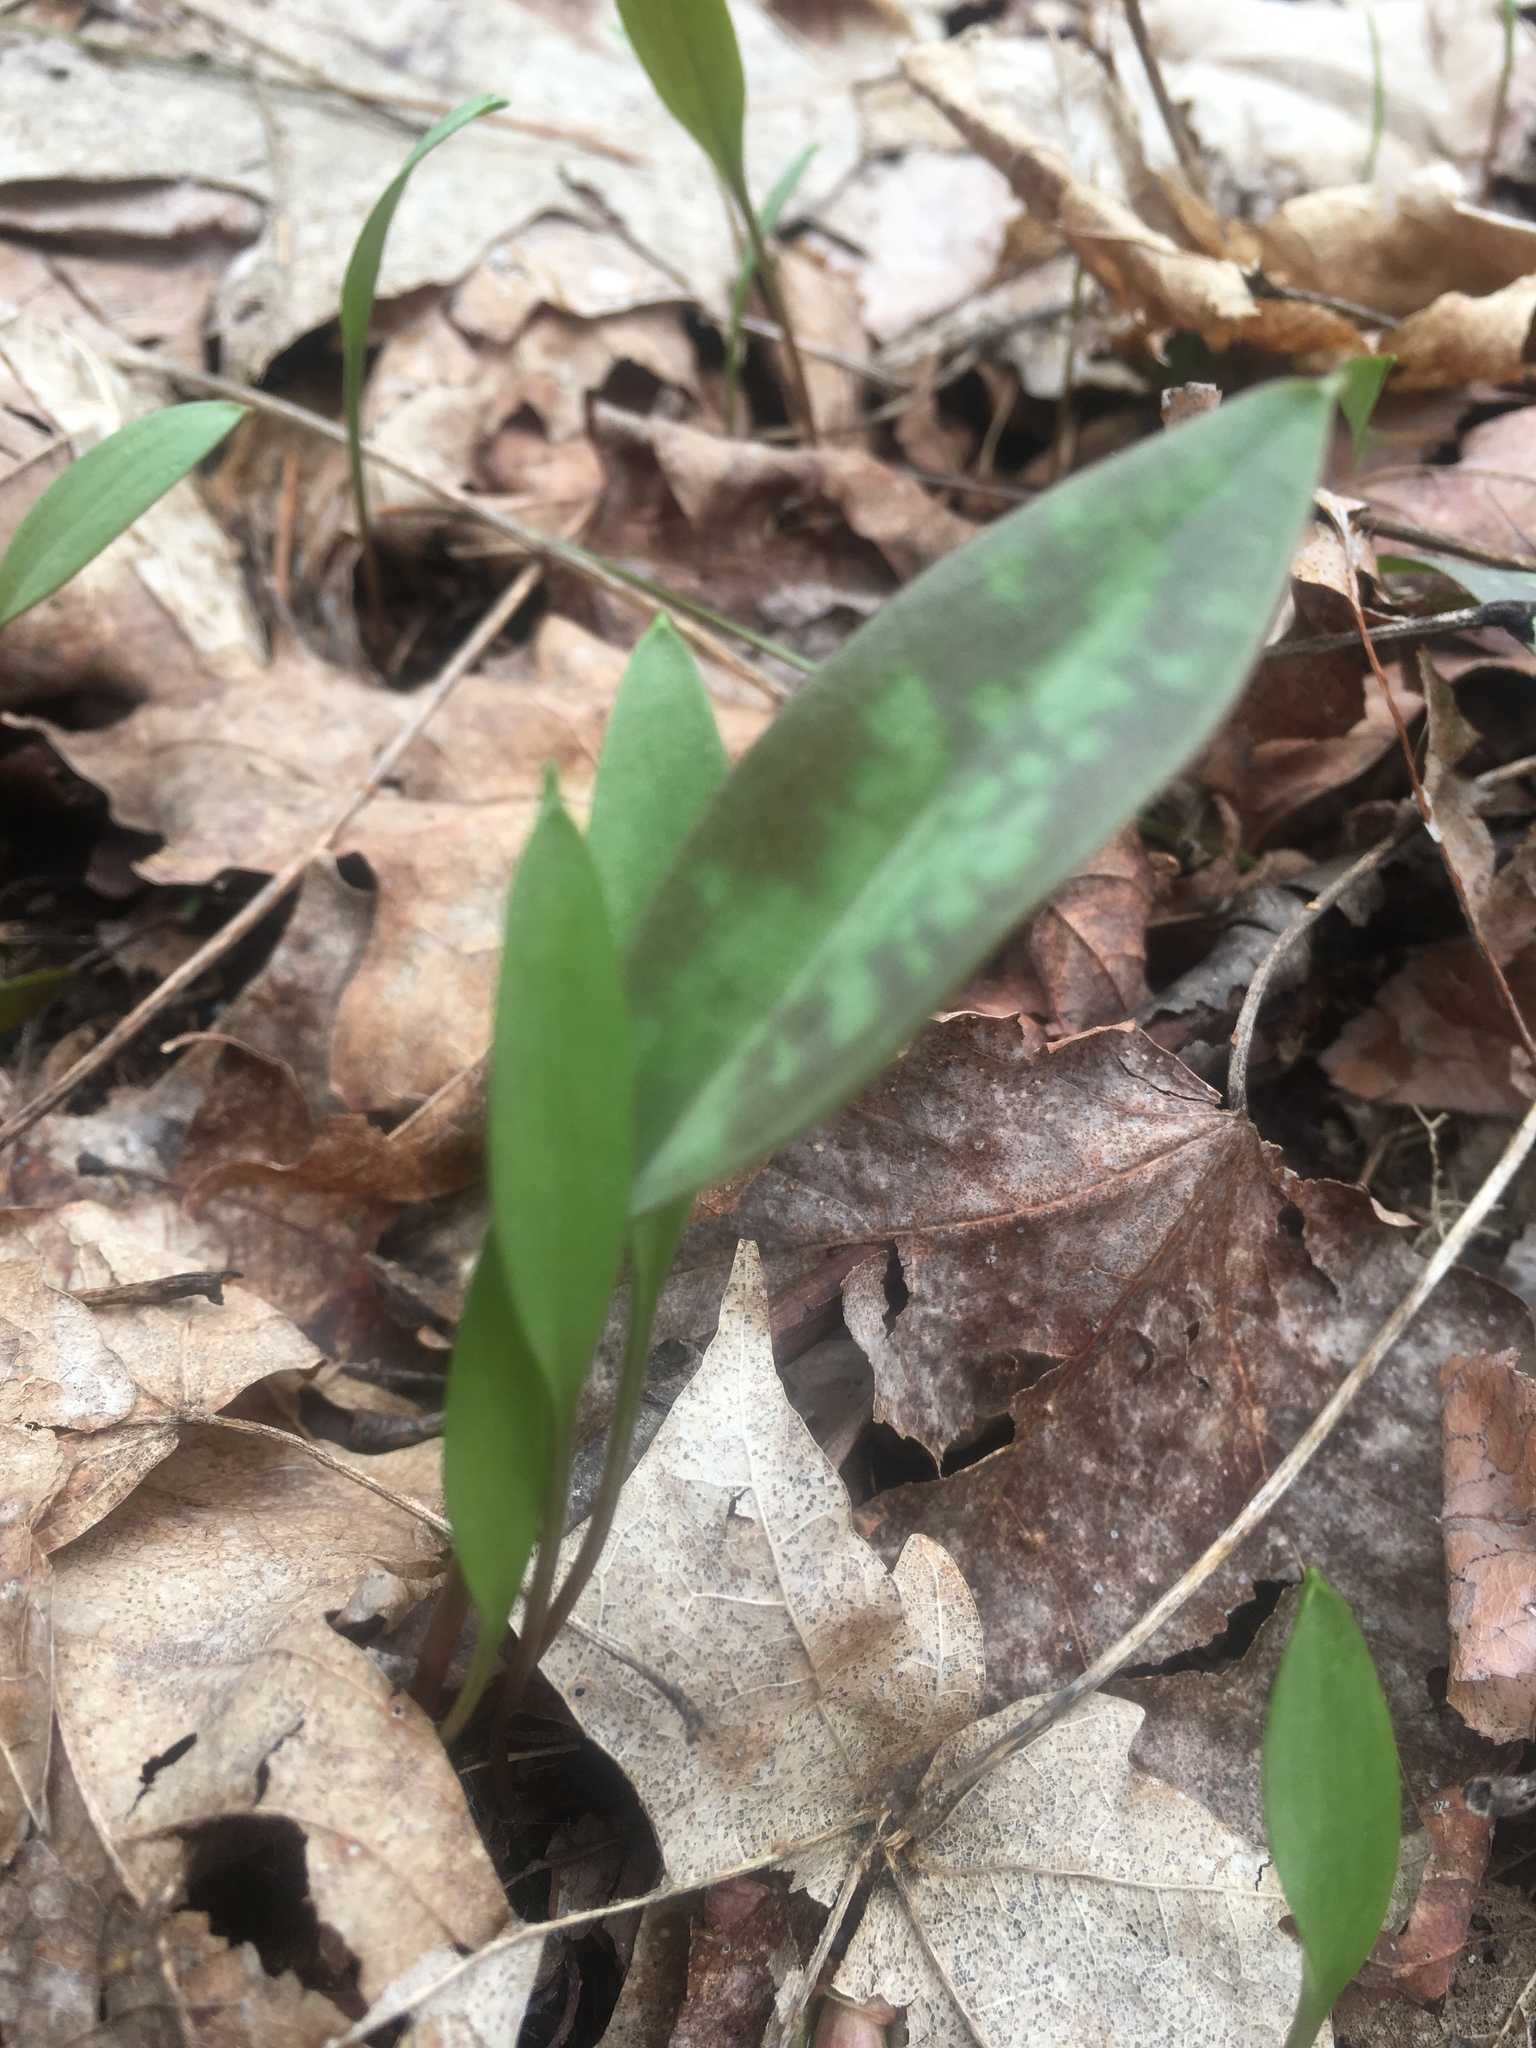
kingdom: Plantae
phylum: Tracheophyta
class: Liliopsida
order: Liliales
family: Liliaceae
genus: Erythronium
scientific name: Erythronium americanum
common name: Yellow adder's-tongue
